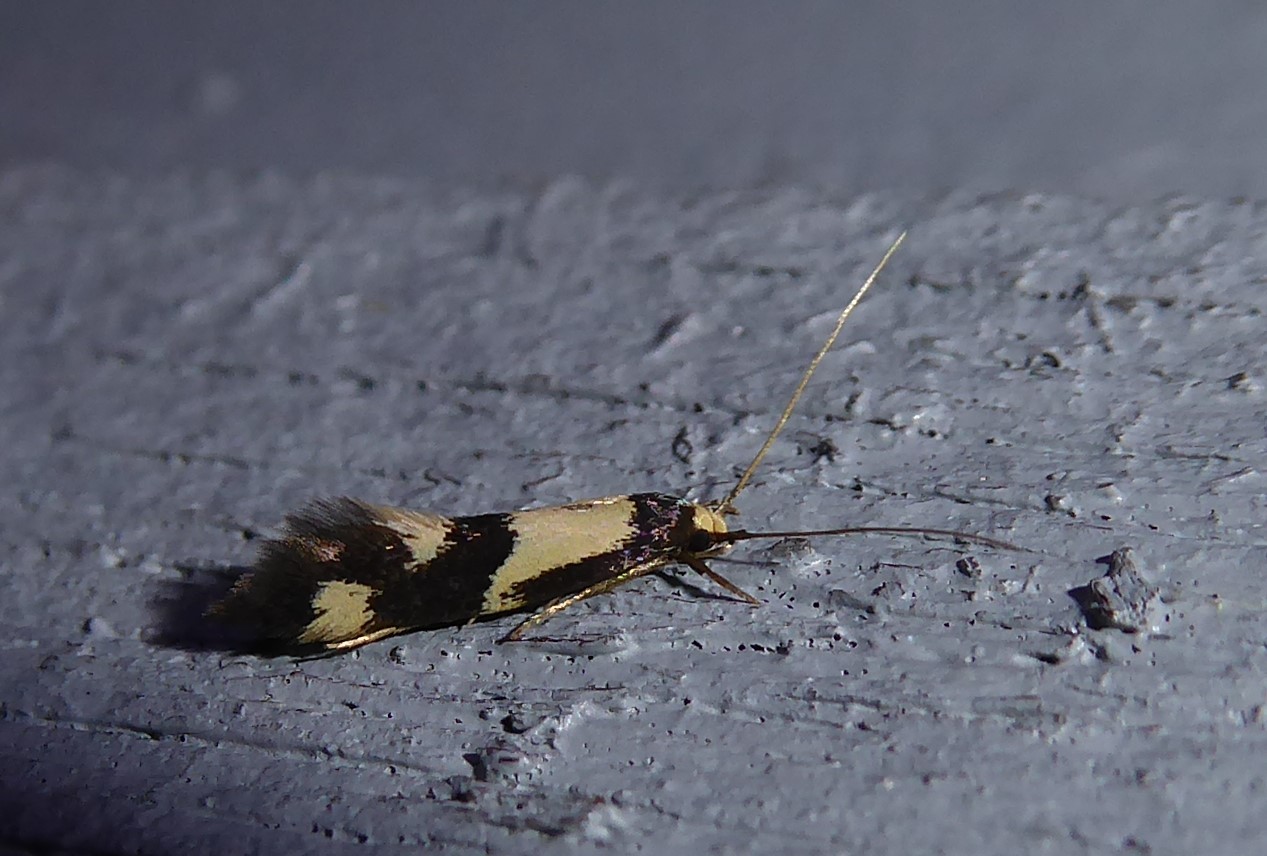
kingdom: Animalia
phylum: Arthropoda
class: Insecta
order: Lepidoptera
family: Tineidae
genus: Opogona
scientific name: Opogona comptella
